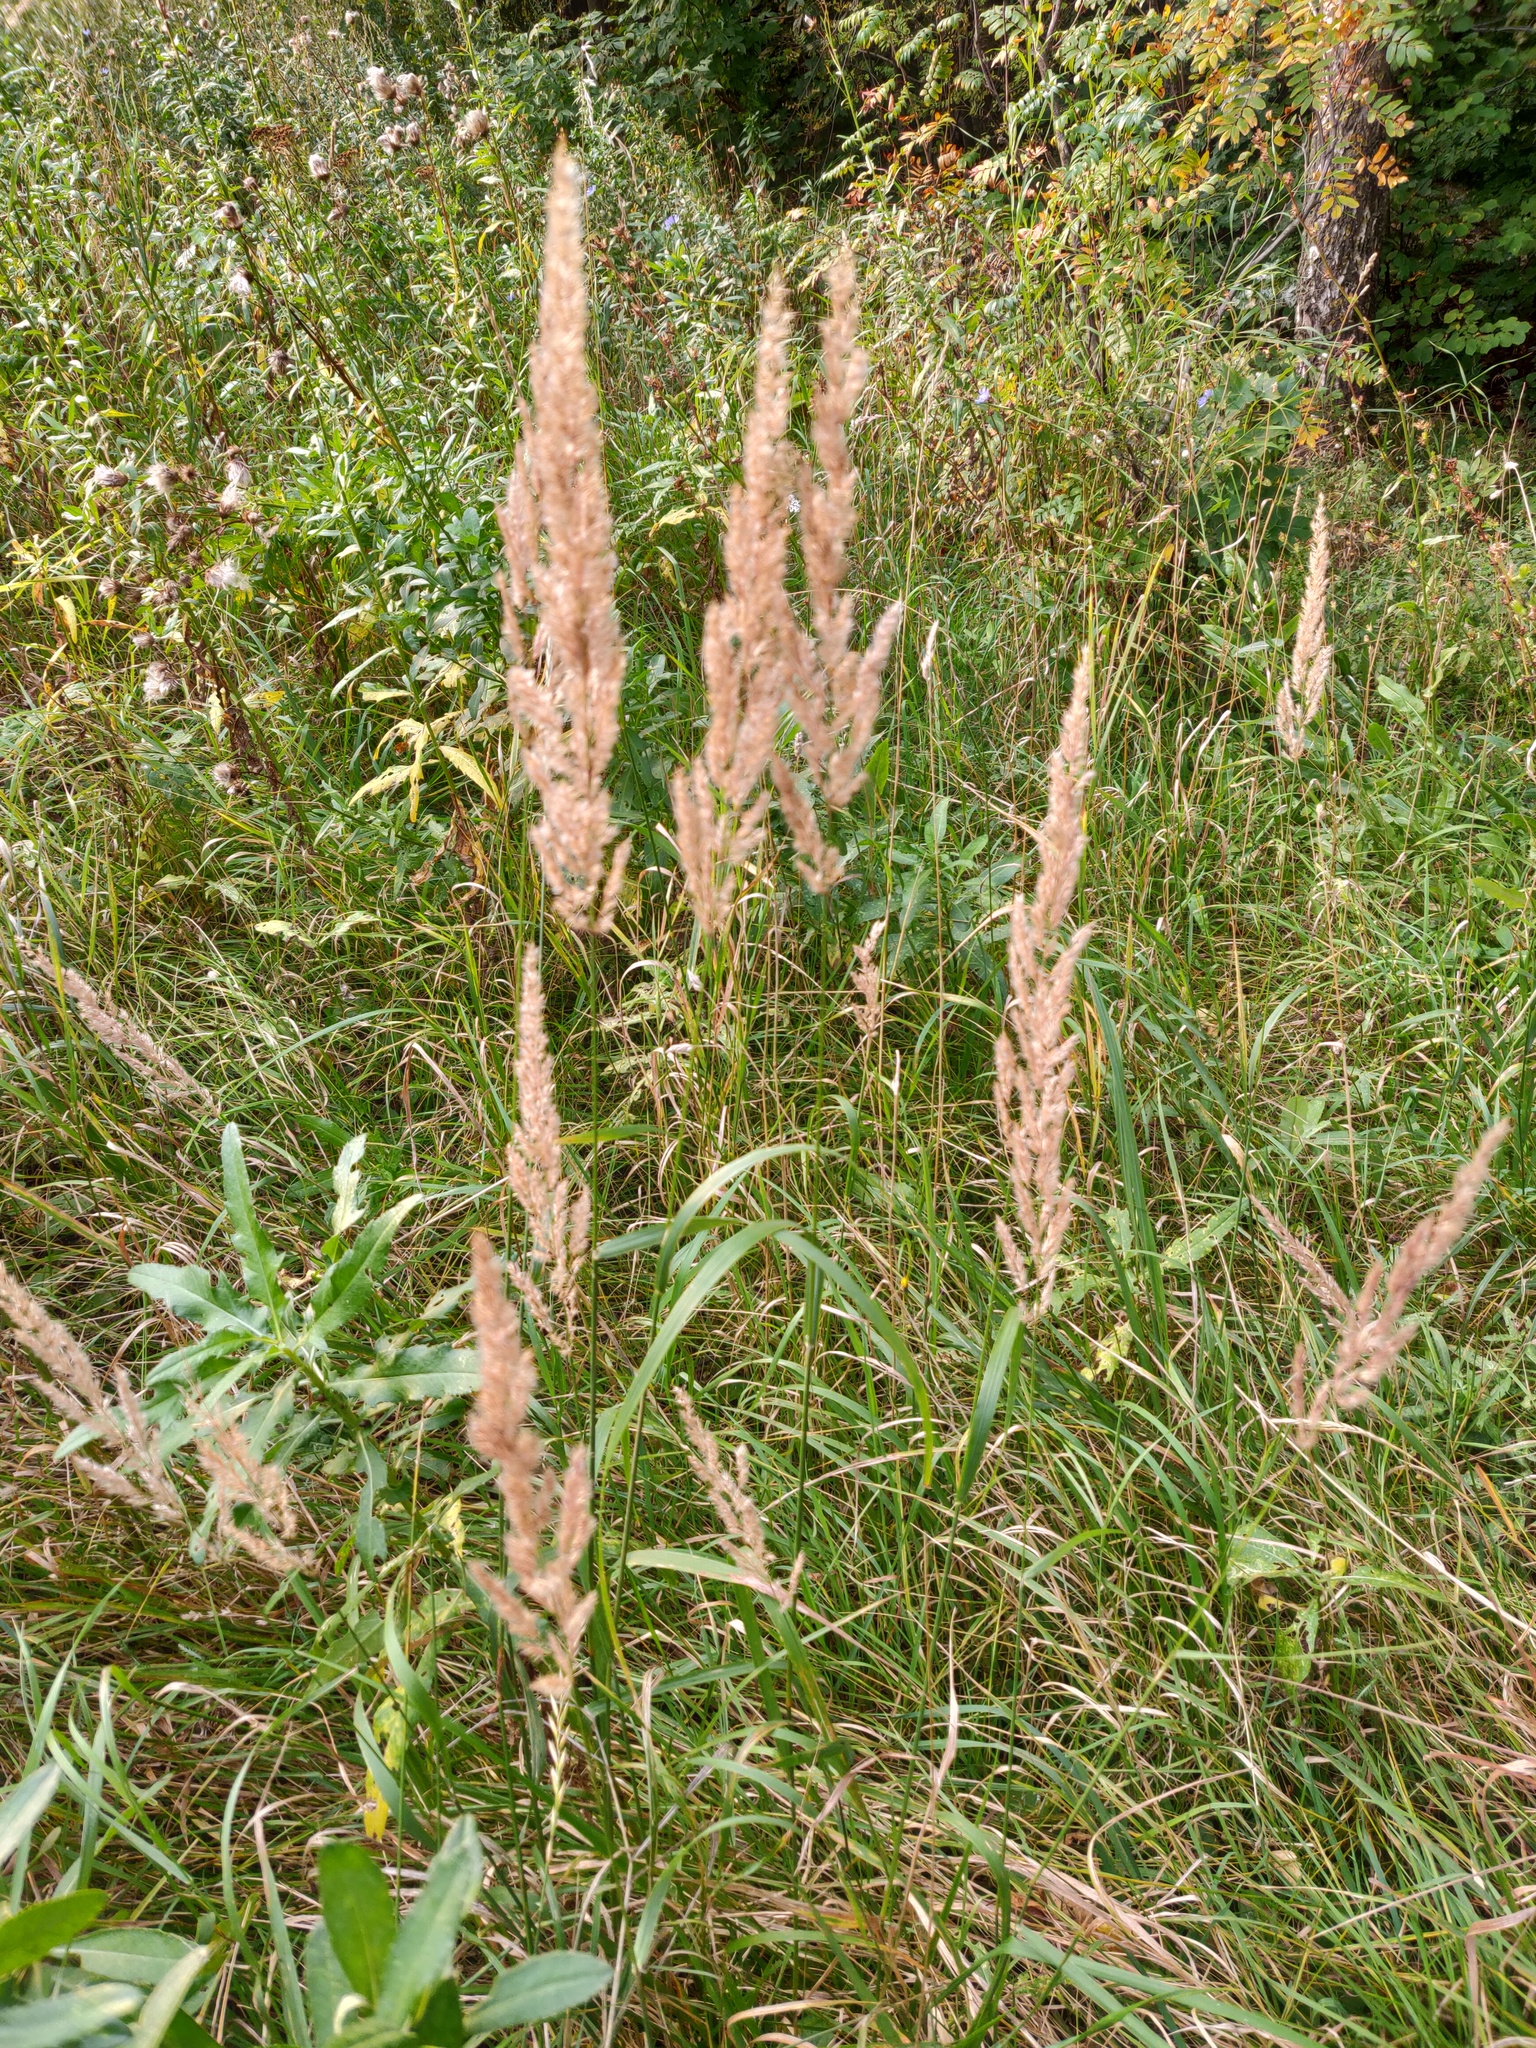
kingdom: Plantae
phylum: Tracheophyta
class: Liliopsida
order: Poales
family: Poaceae
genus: Calamagrostis
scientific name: Calamagrostis epigejos
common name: Wood small-reed
